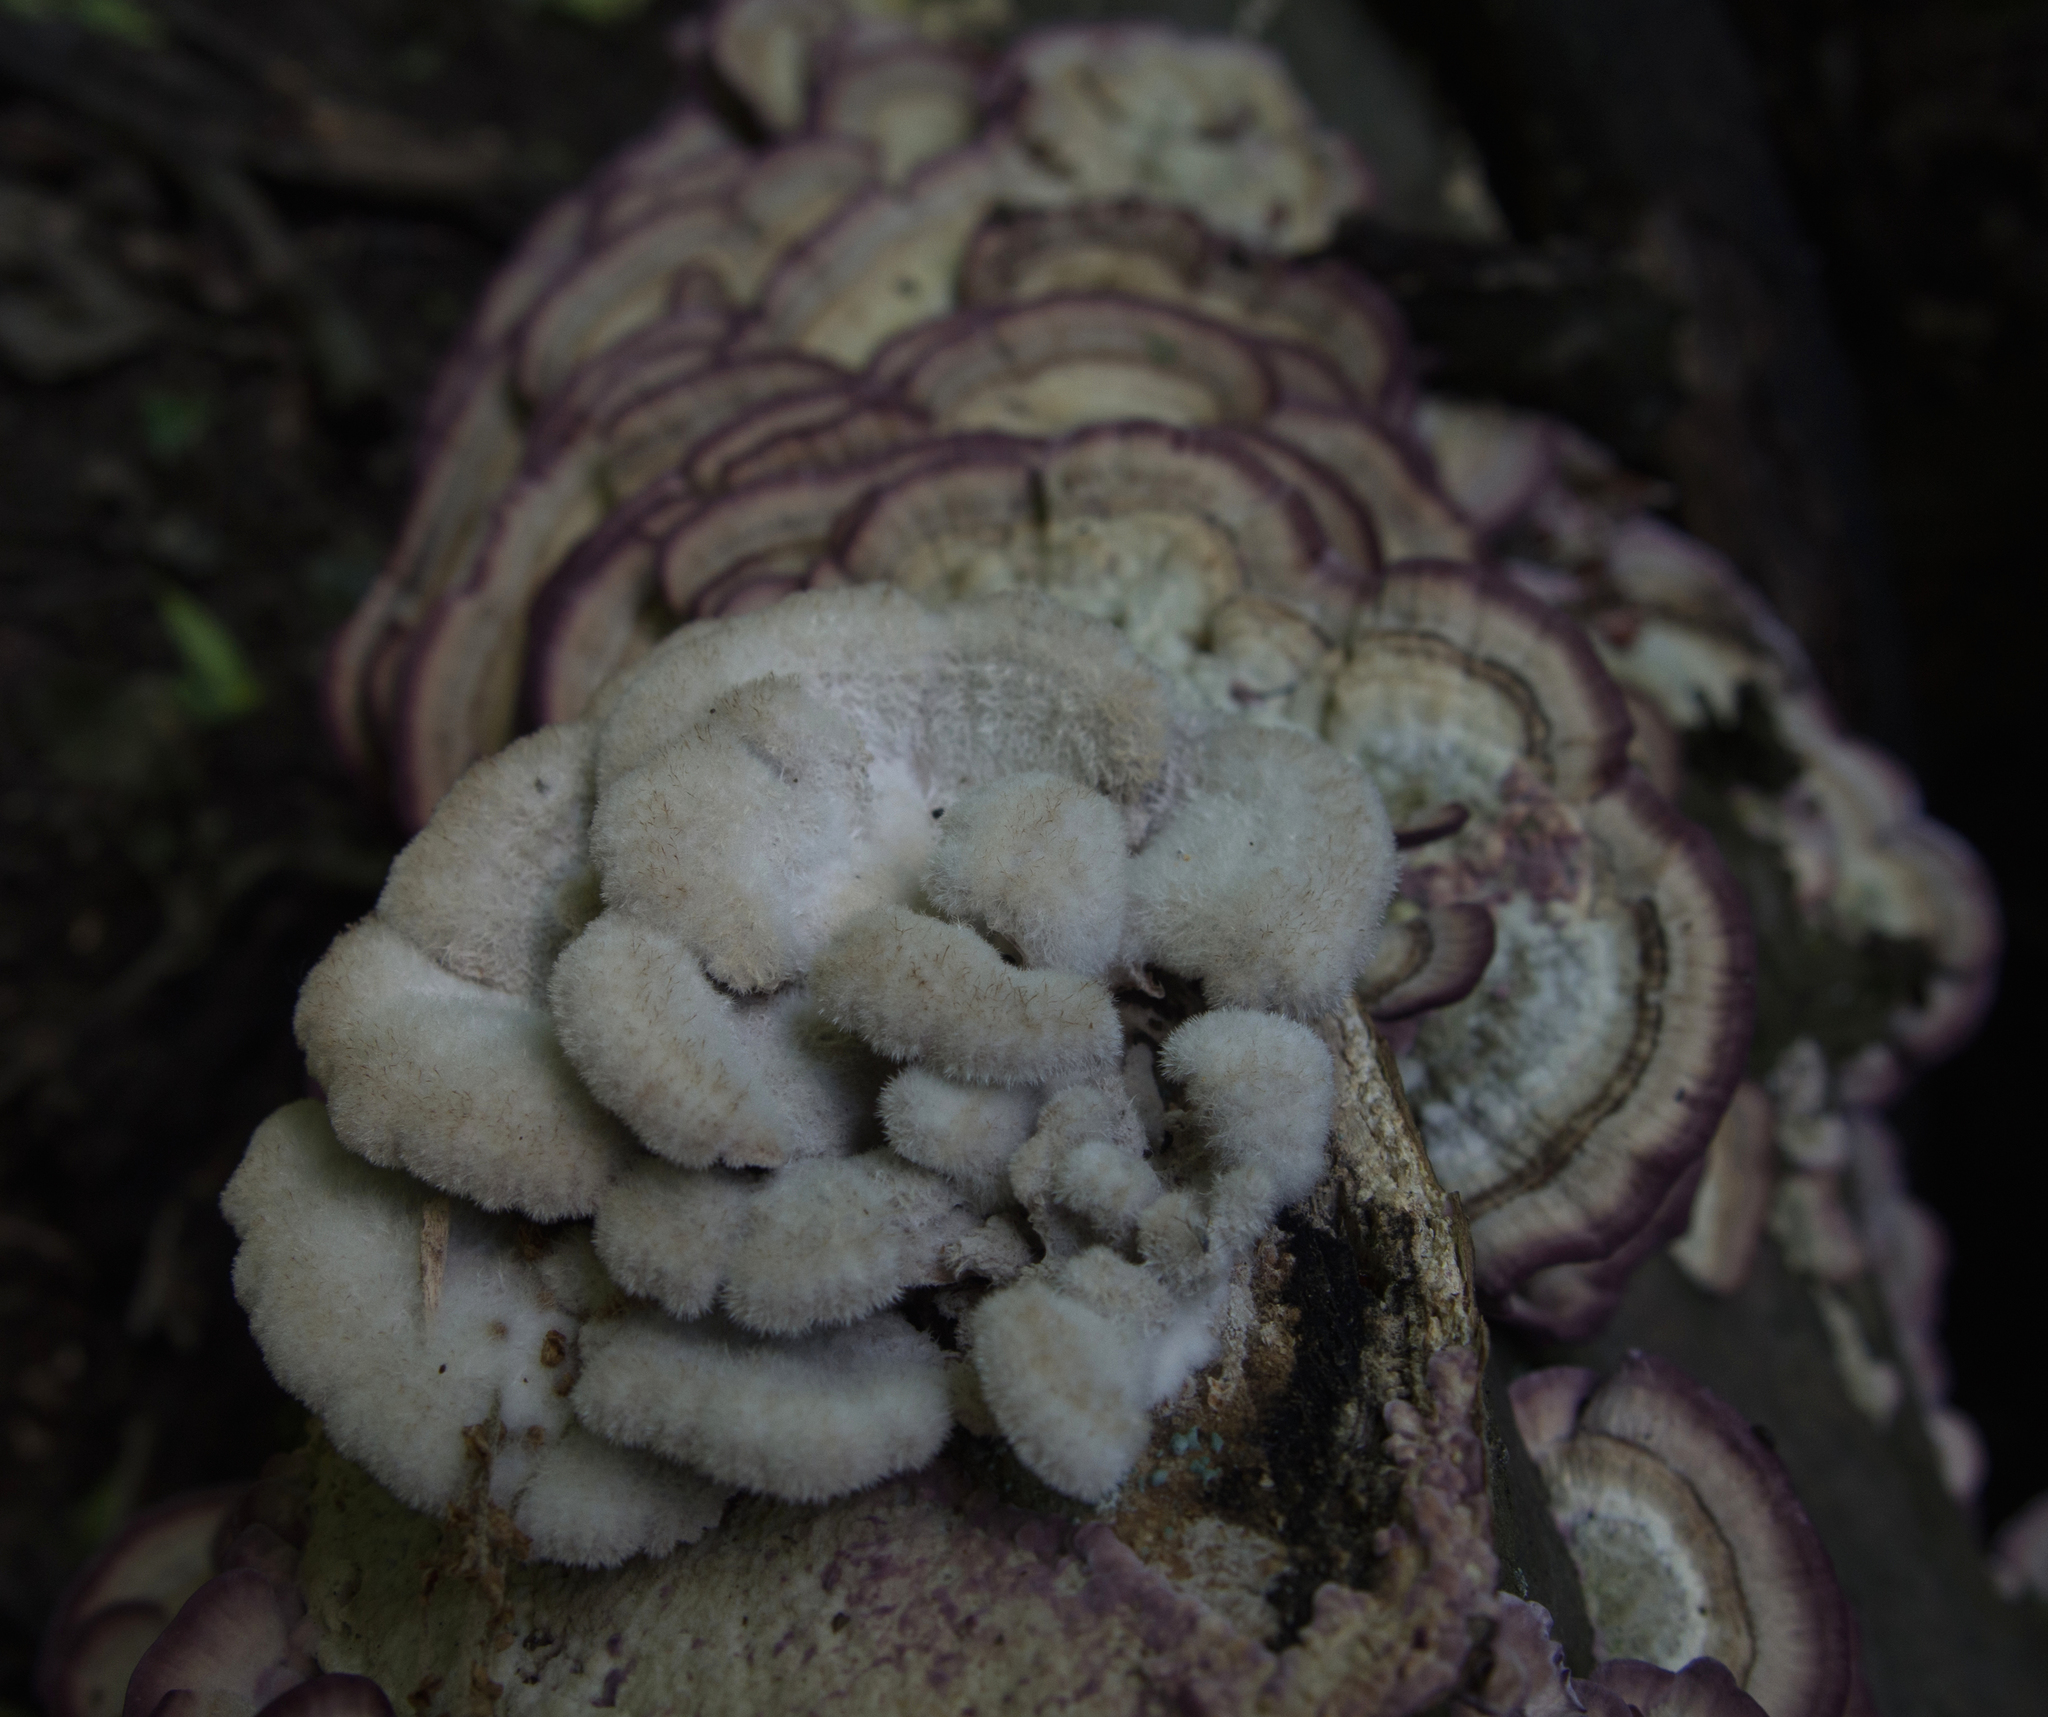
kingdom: Fungi
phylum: Basidiomycota
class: Agaricomycetes
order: Agaricales
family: Schizophyllaceae
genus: Schizophyllum
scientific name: Schizophyllum commune
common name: Common porecrust
